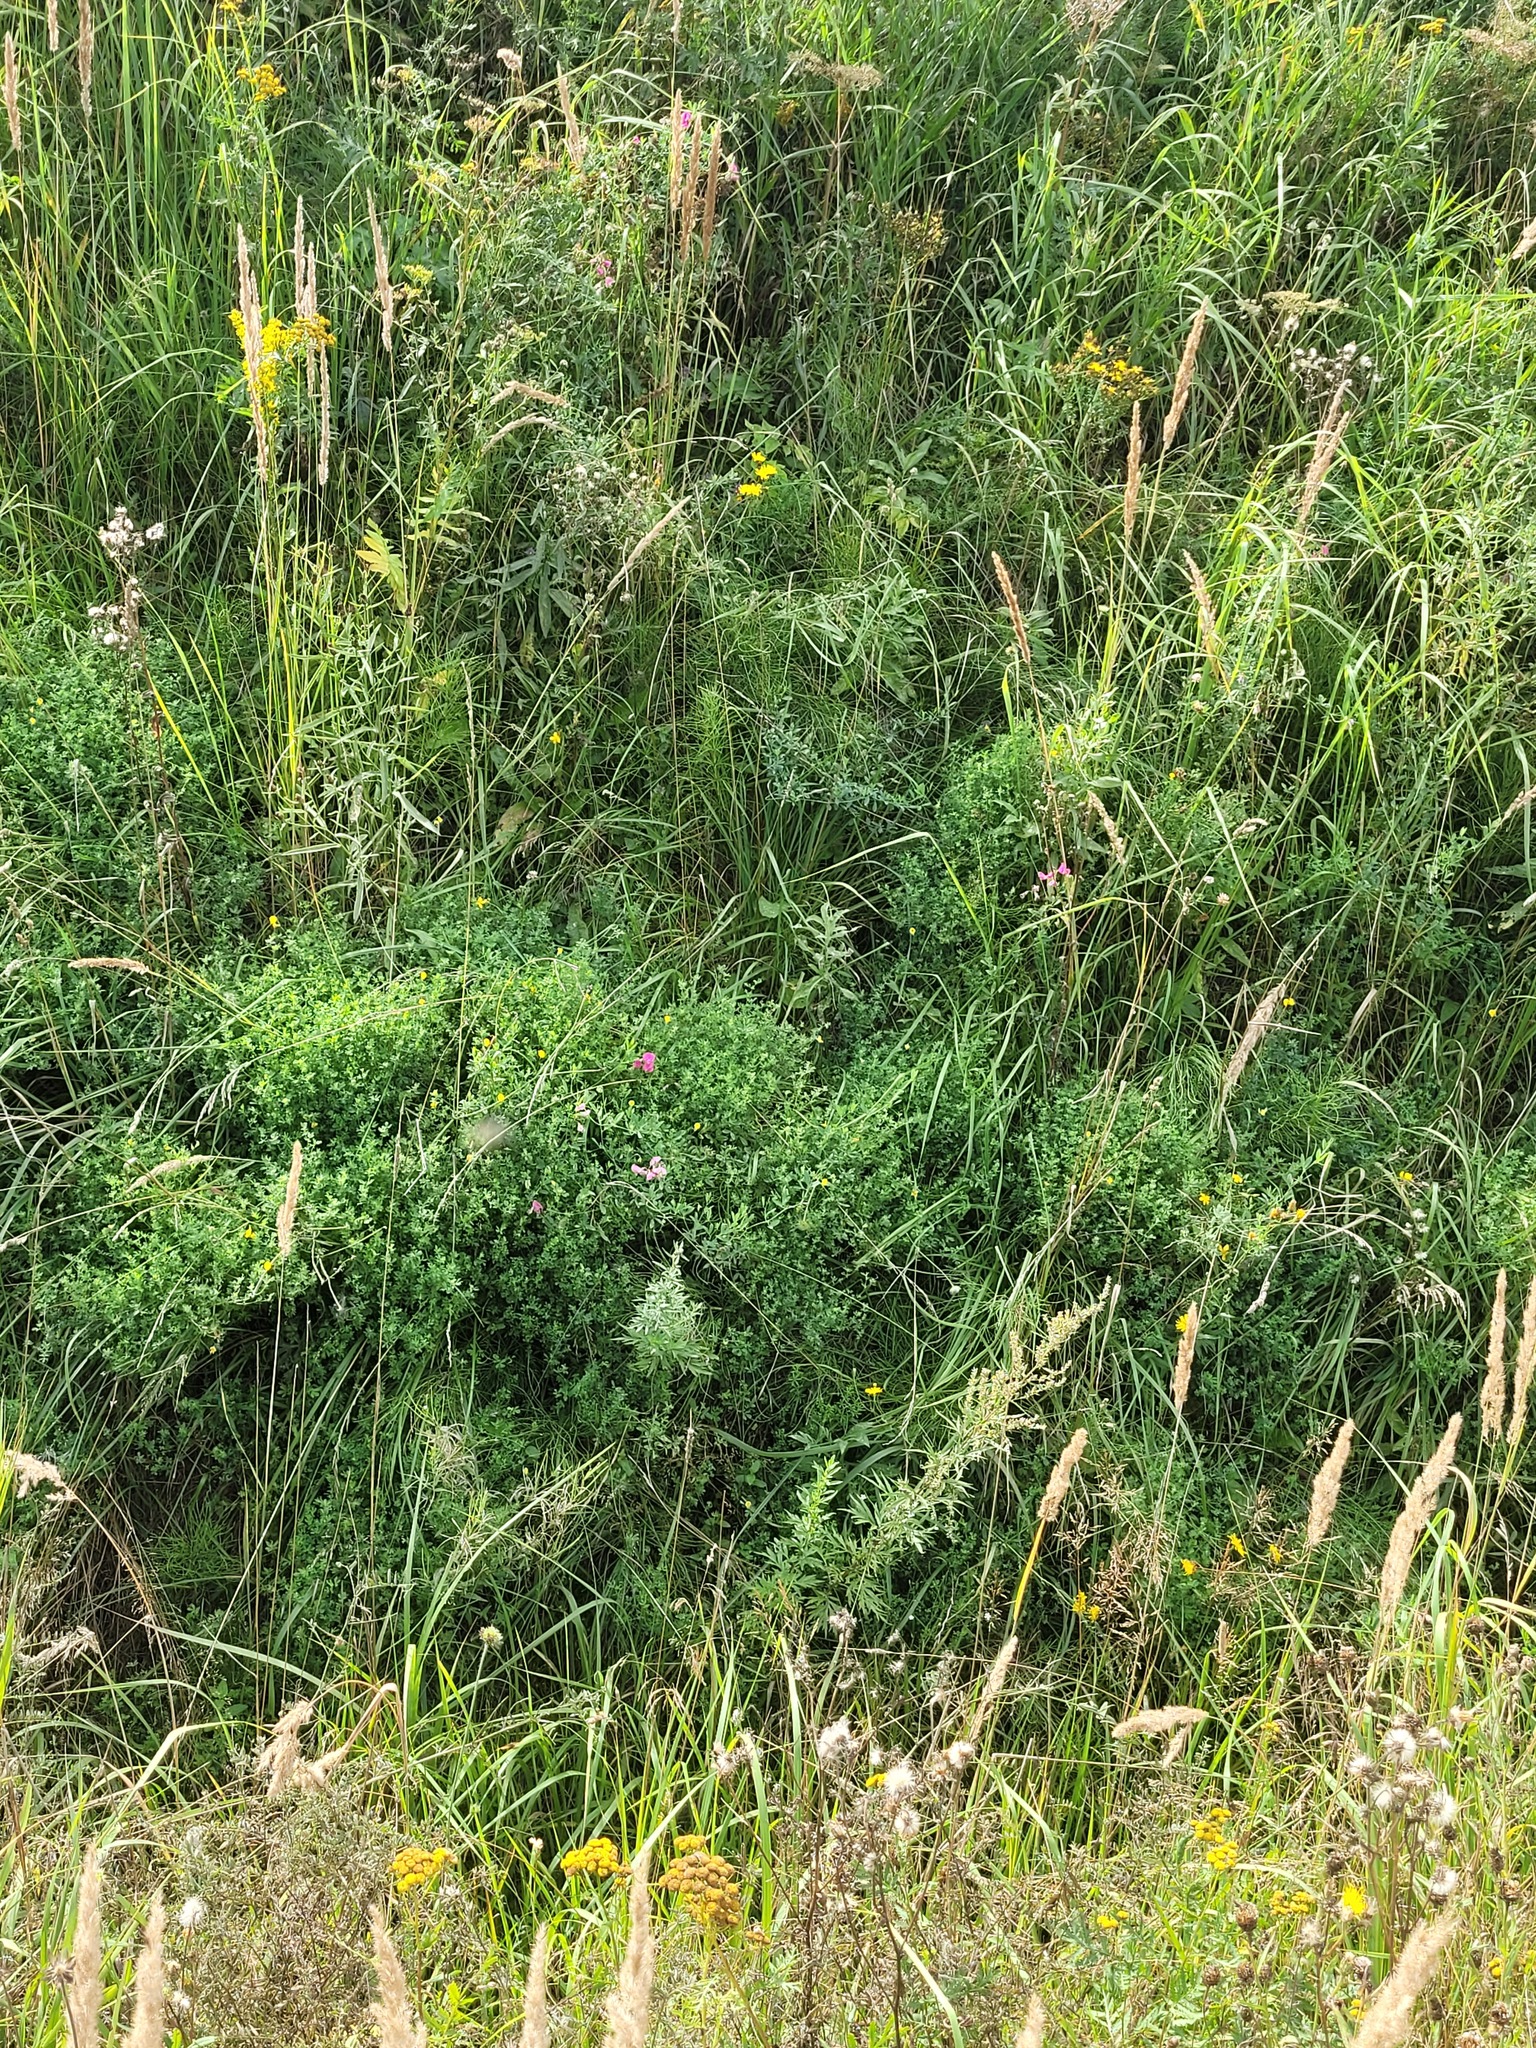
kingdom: Plantae
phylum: Tracheophyta
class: Magnoliopsida
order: Fabales
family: Fabaceae
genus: Lathyrus
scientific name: Lathyrus tuberosus
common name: Tuberous pea
